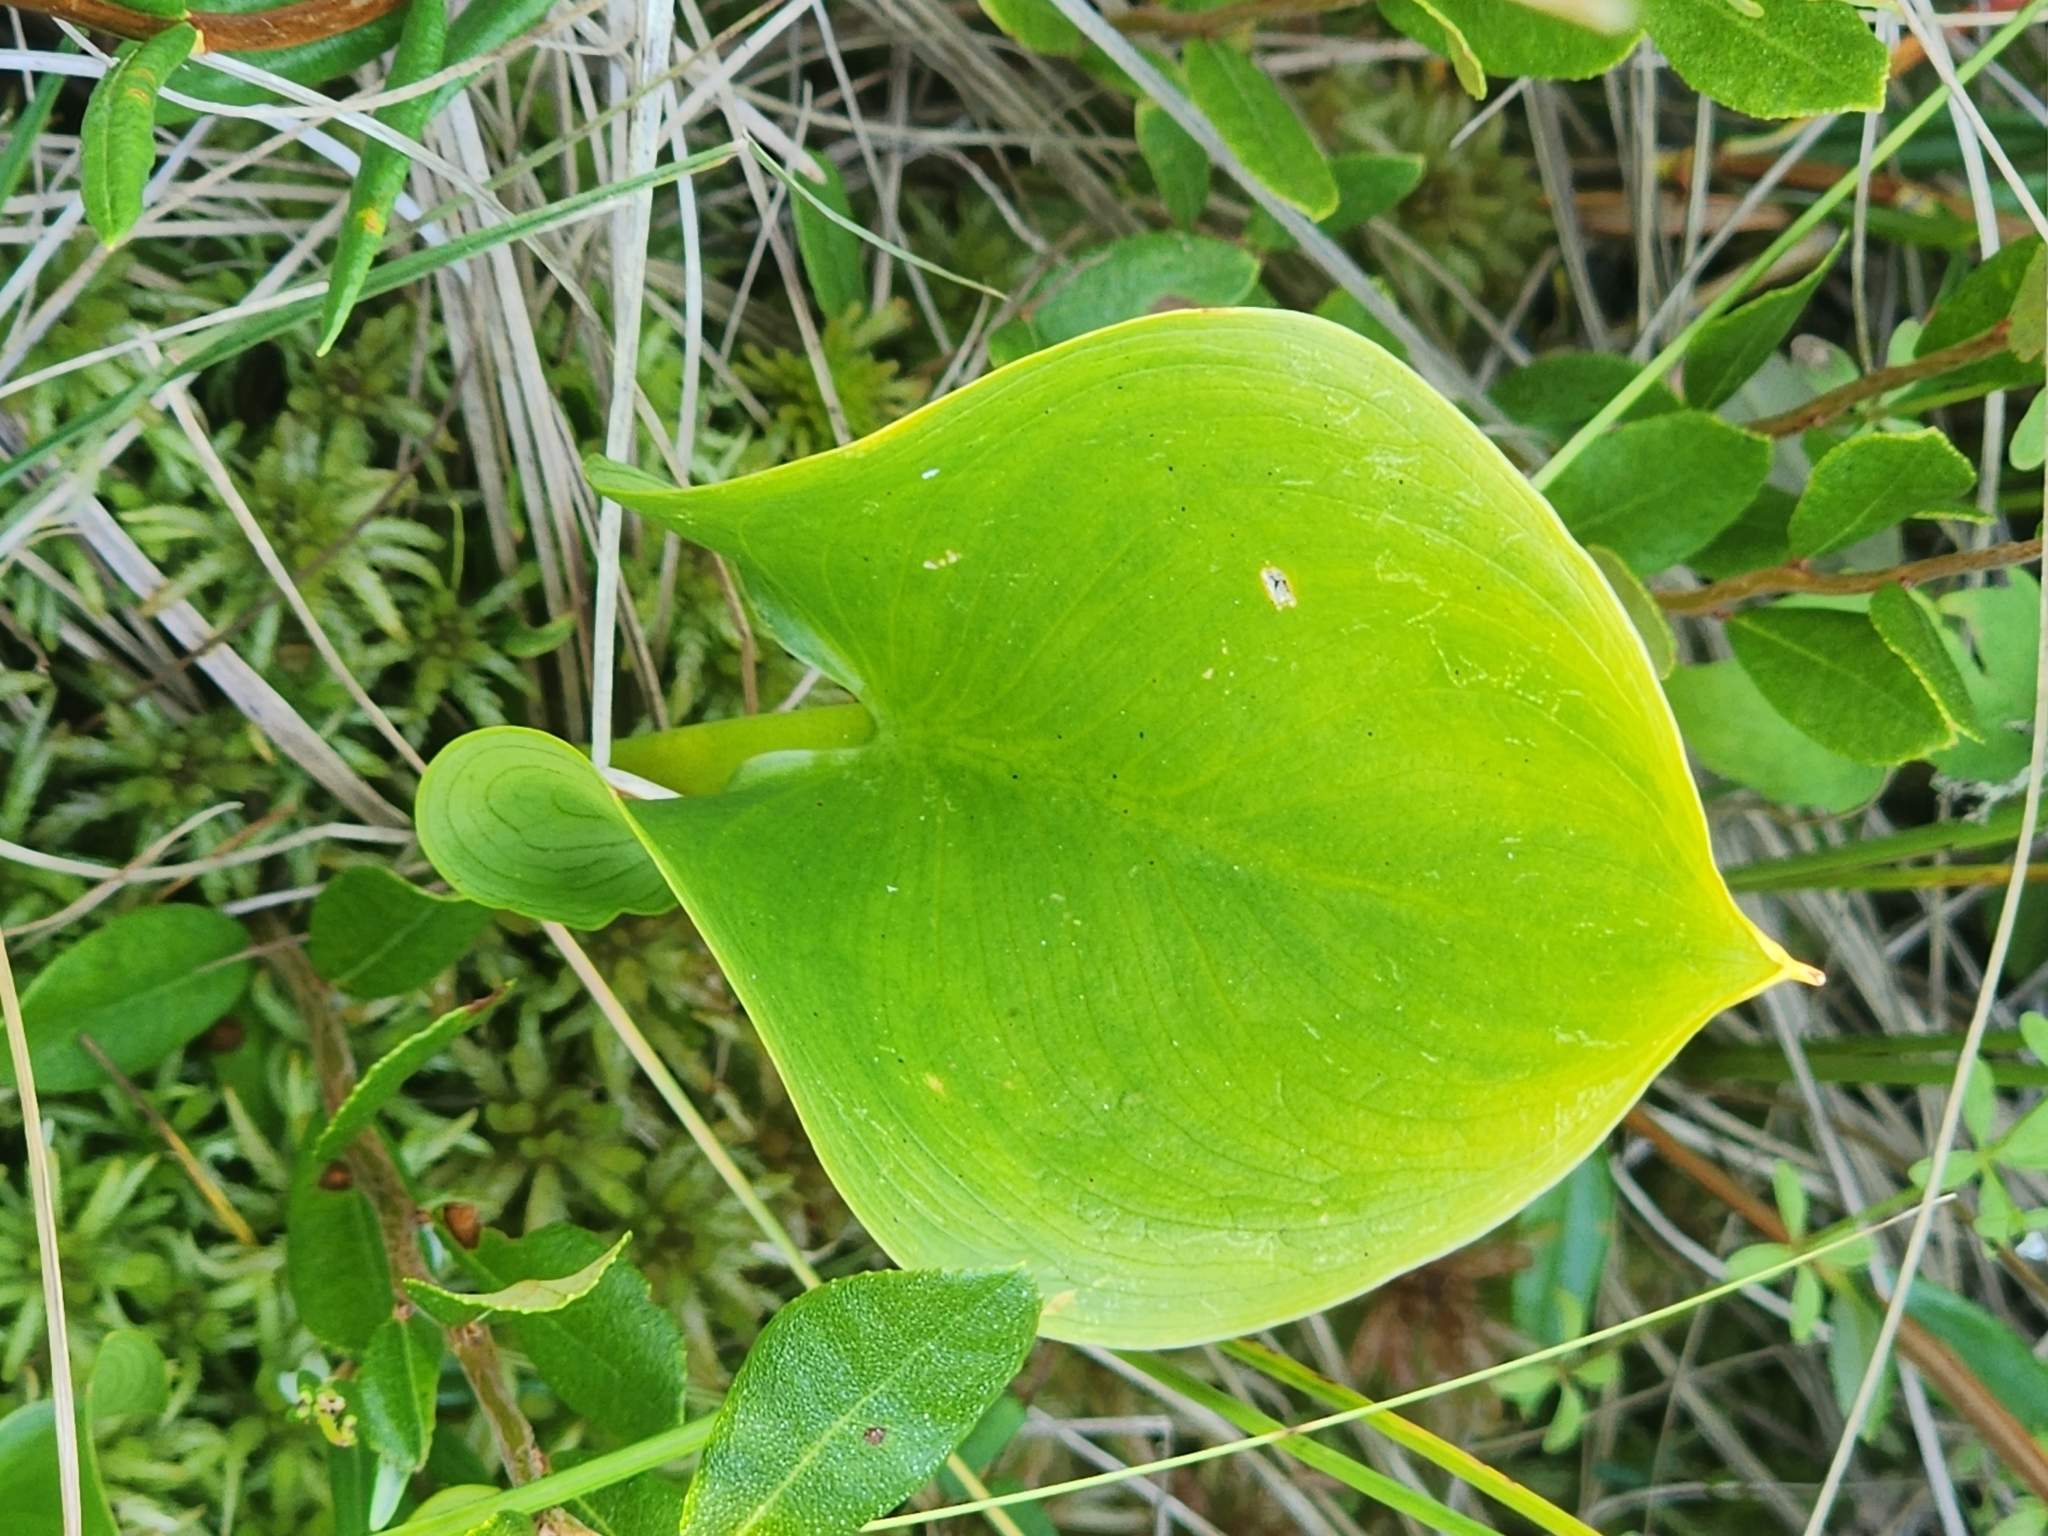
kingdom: Plantae
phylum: Tracheophyta
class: Liliopsida
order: Alismatales
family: Araceae
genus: Calla
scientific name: Calla palustris
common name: Bog arum
